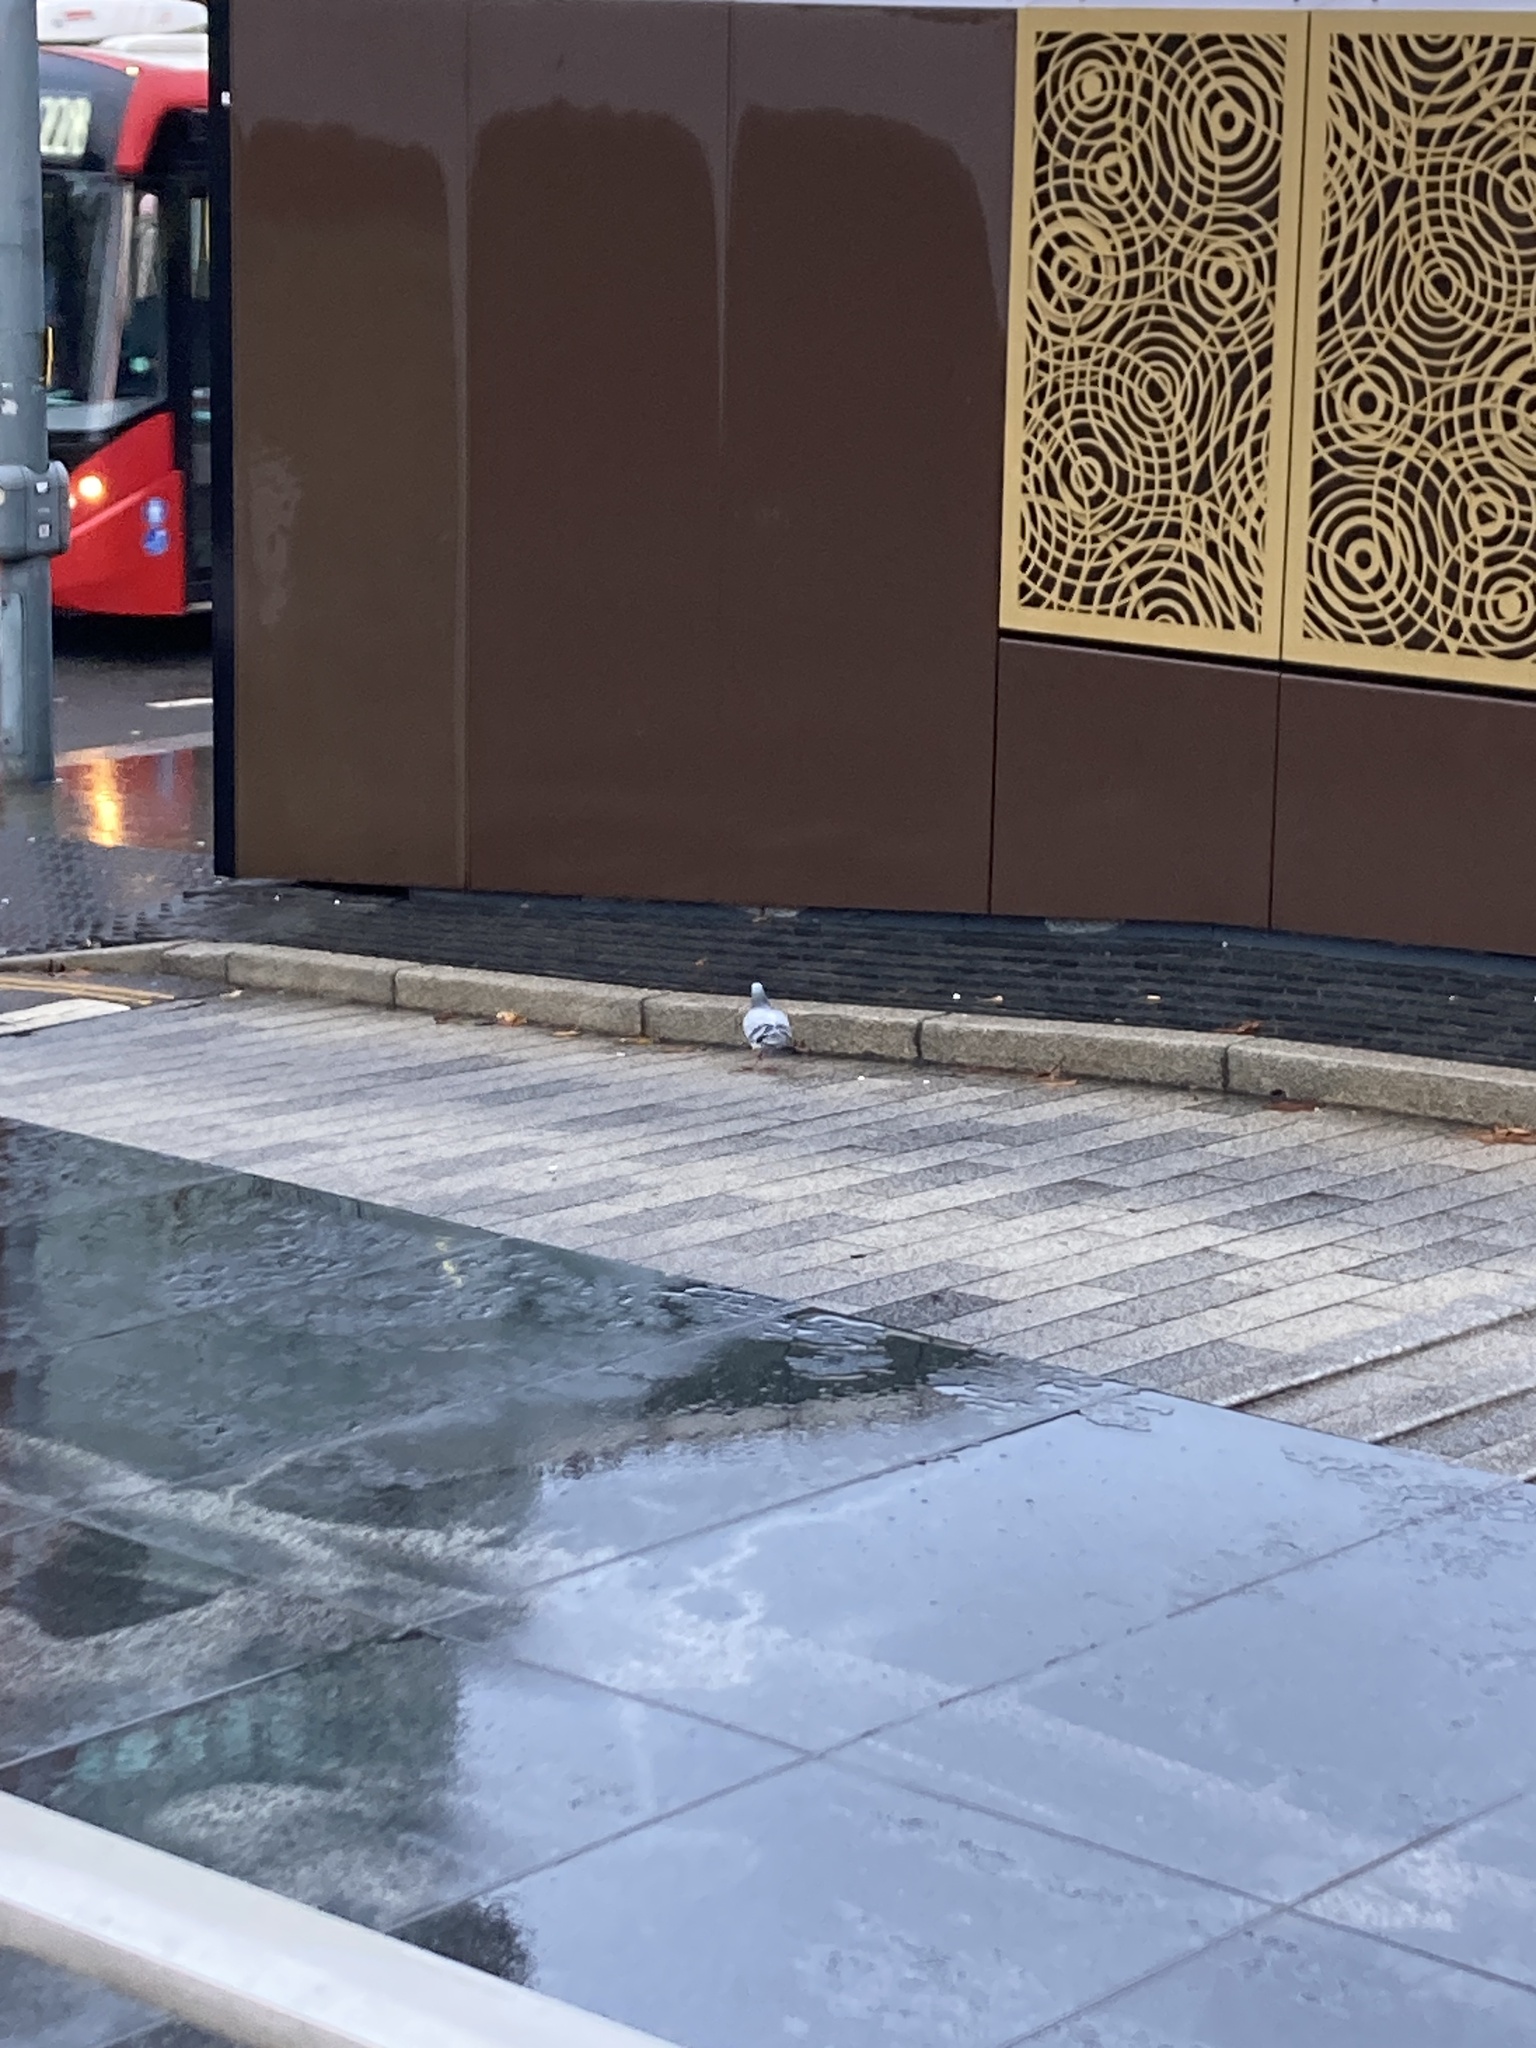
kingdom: Animalia
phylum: Chordata
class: Aves
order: Columbiformes
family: Columbidae
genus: Columba
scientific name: Columba livia
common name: Rock pigeon
